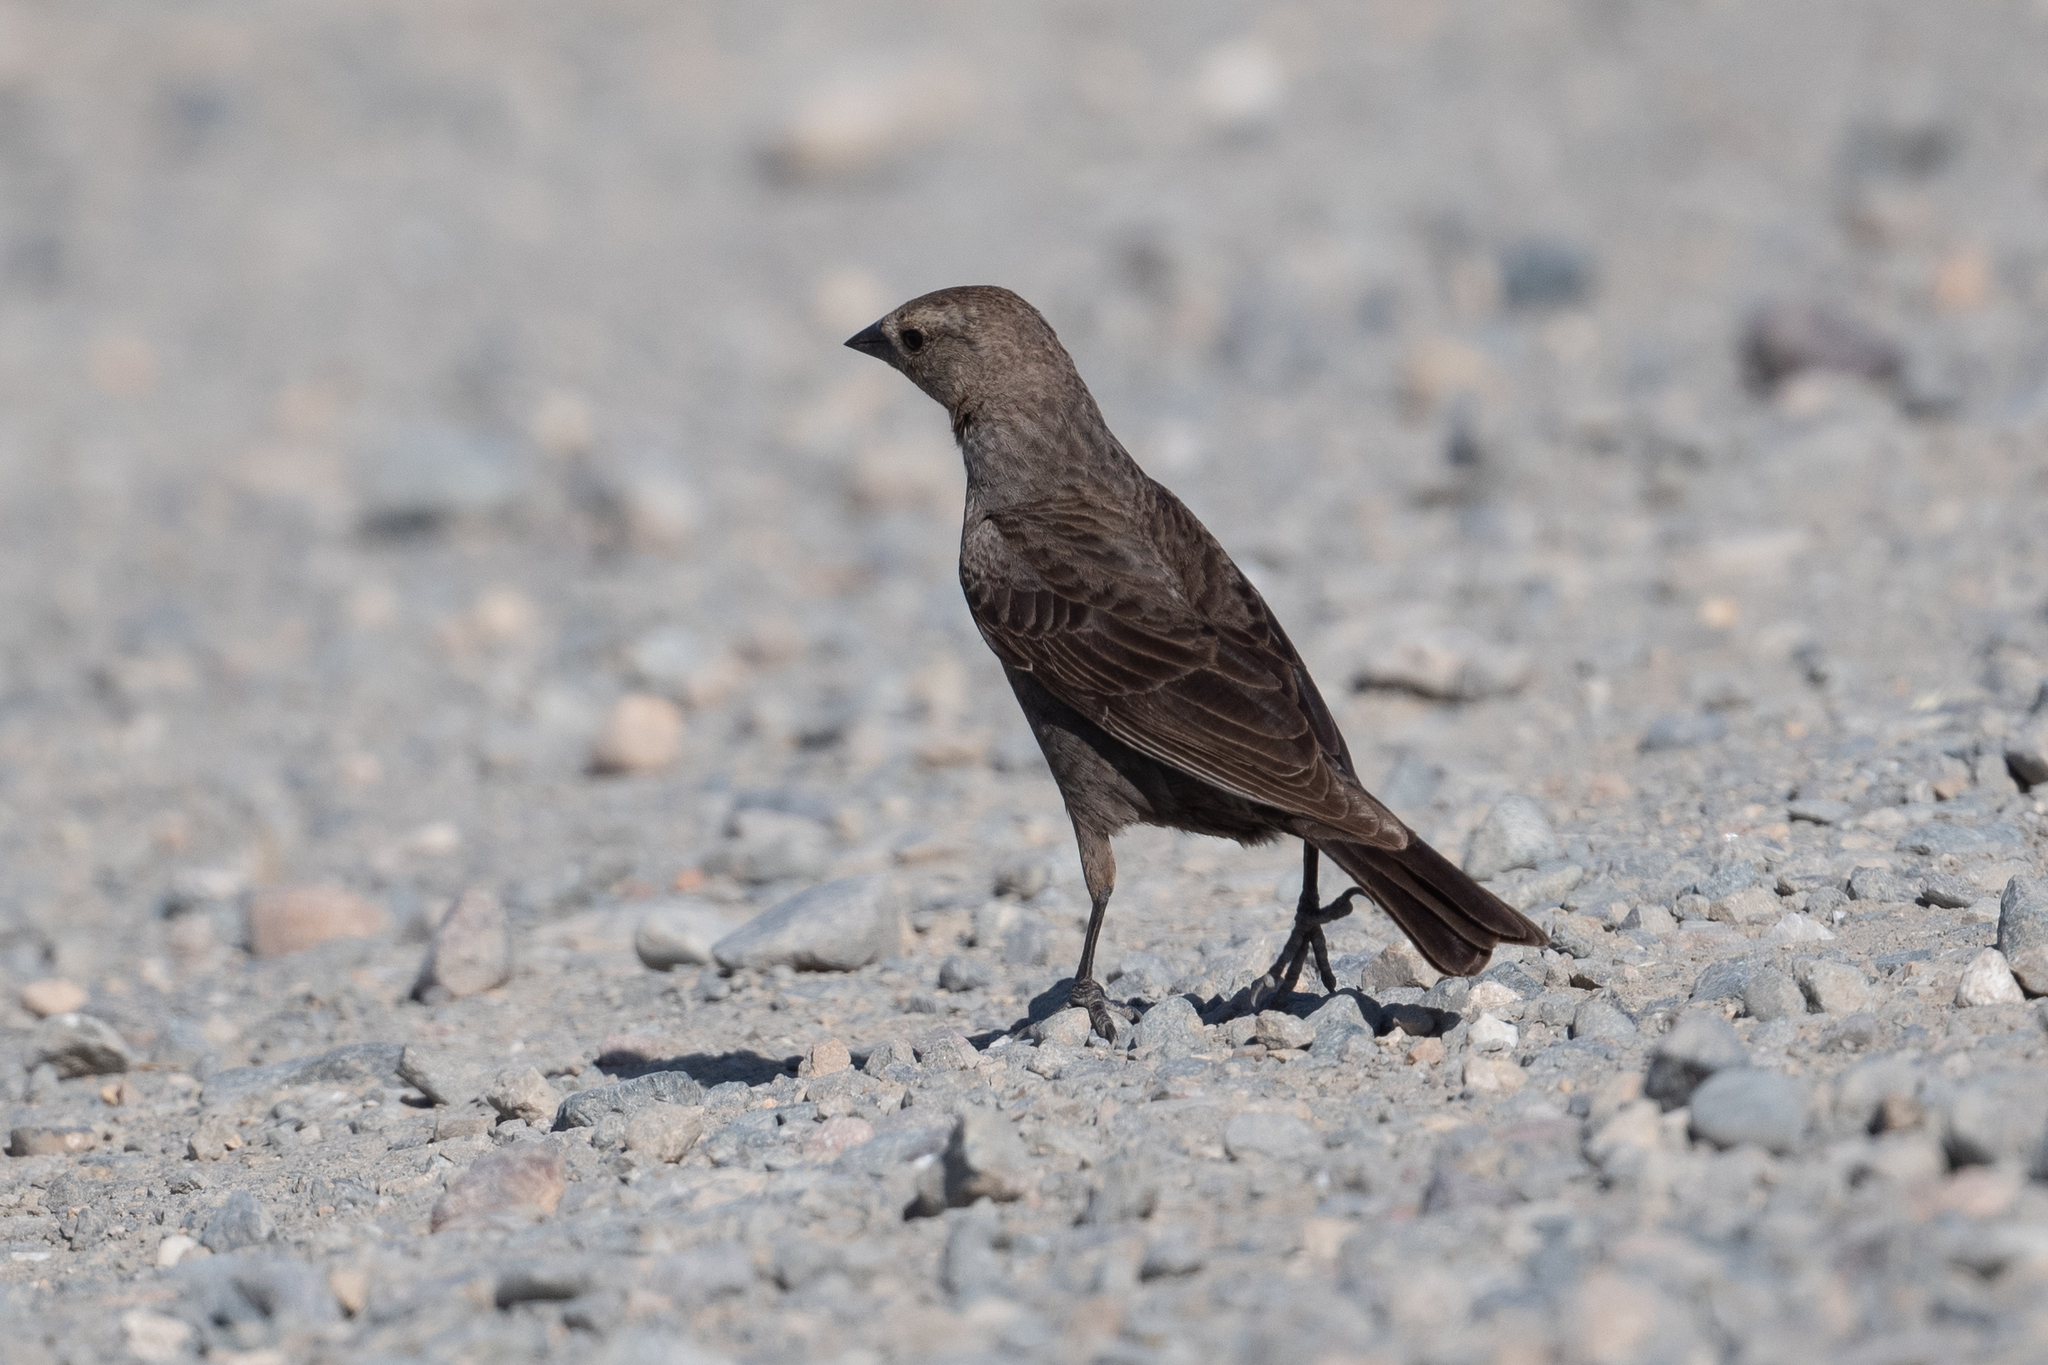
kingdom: Animalia
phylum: Chordata
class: Aves
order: Passeriformes
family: Icteridae
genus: Molothrus
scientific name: Molothrus ater
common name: Brown-headed cowbird
